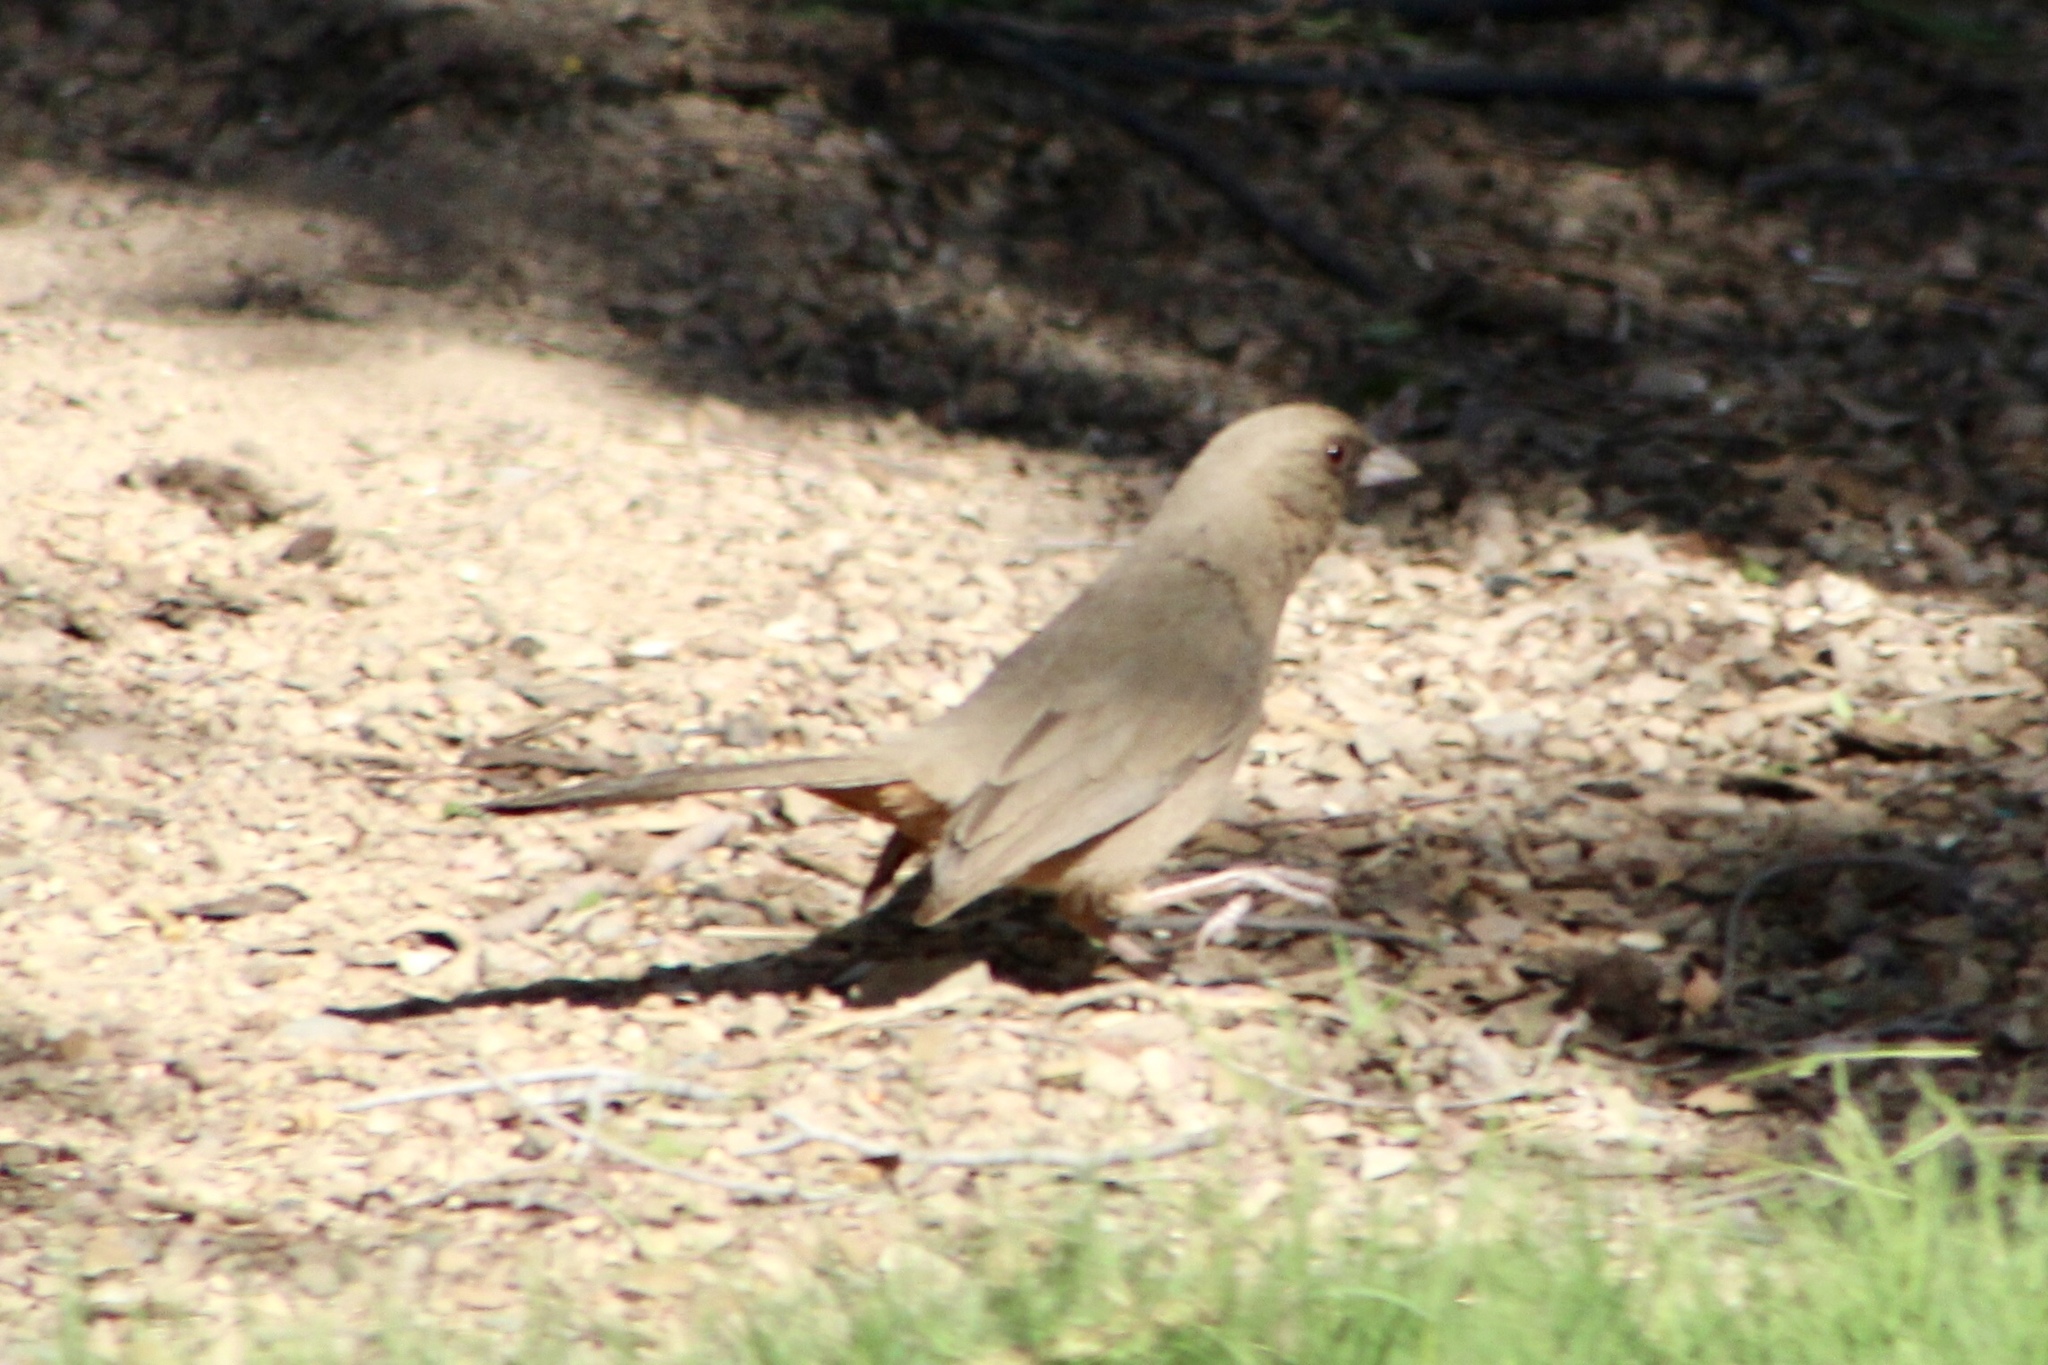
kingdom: Animalia
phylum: Chordata
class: Aves
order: Passeriformes
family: Passerellidae
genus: Melozone
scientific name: Melozone aberti
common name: Abert's towhee
